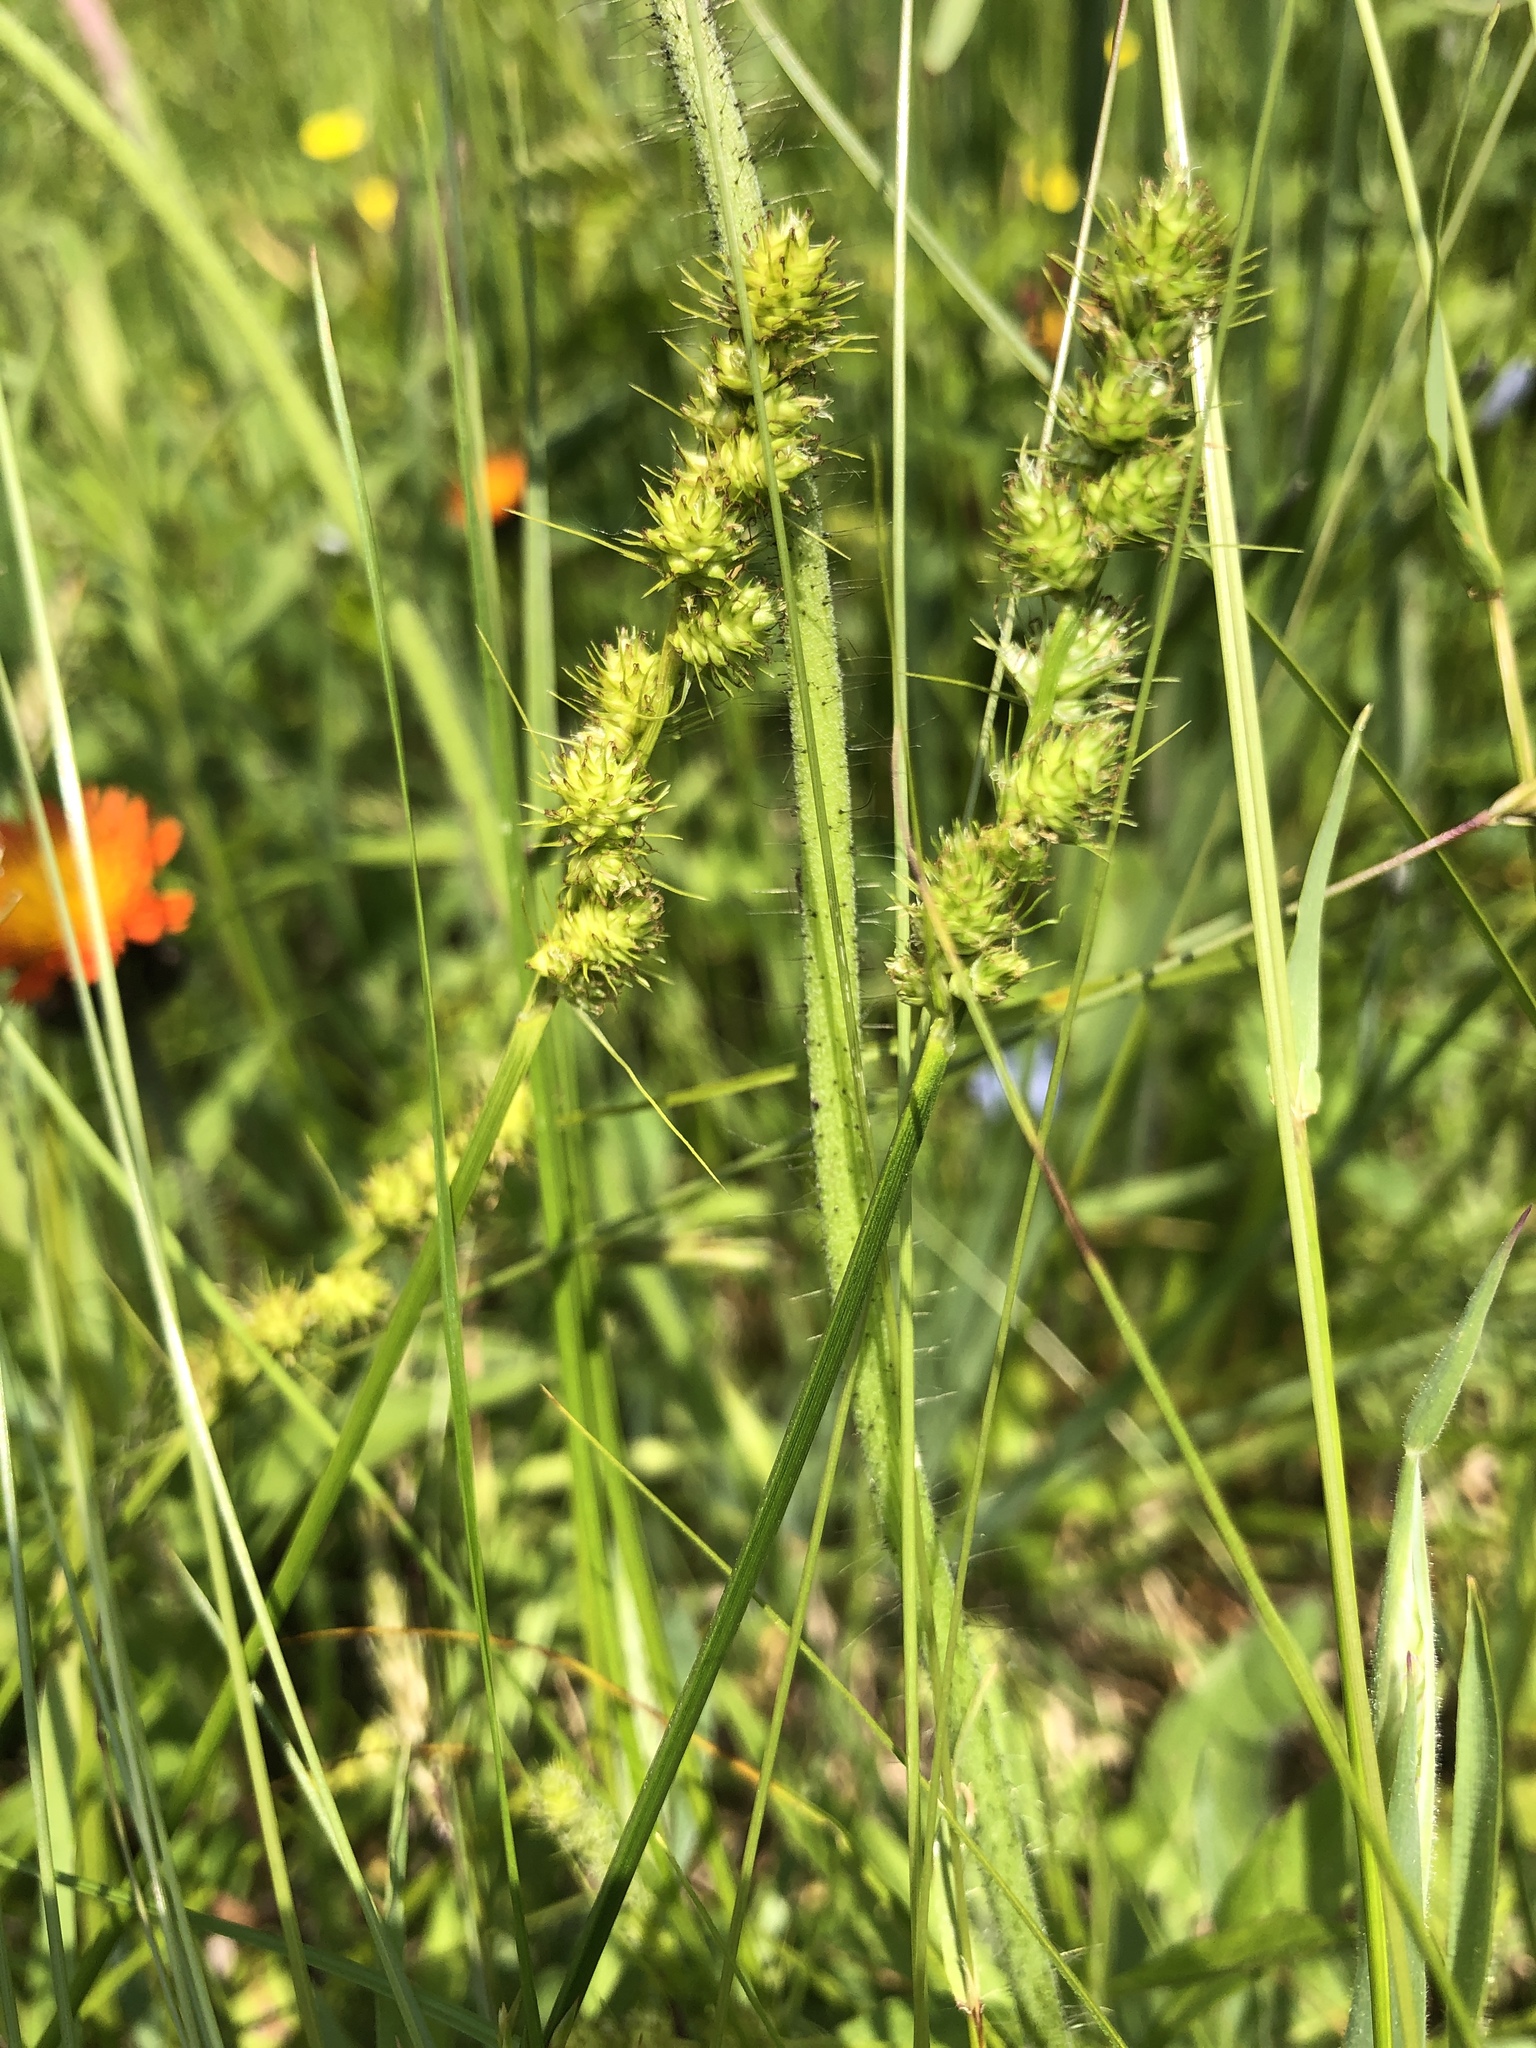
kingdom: Plantae
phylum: Tracheophyta
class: Liliopsida
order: Poales
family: Cyperaceae
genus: Carex
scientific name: Carex vulpinoidea
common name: American fox-sedge
